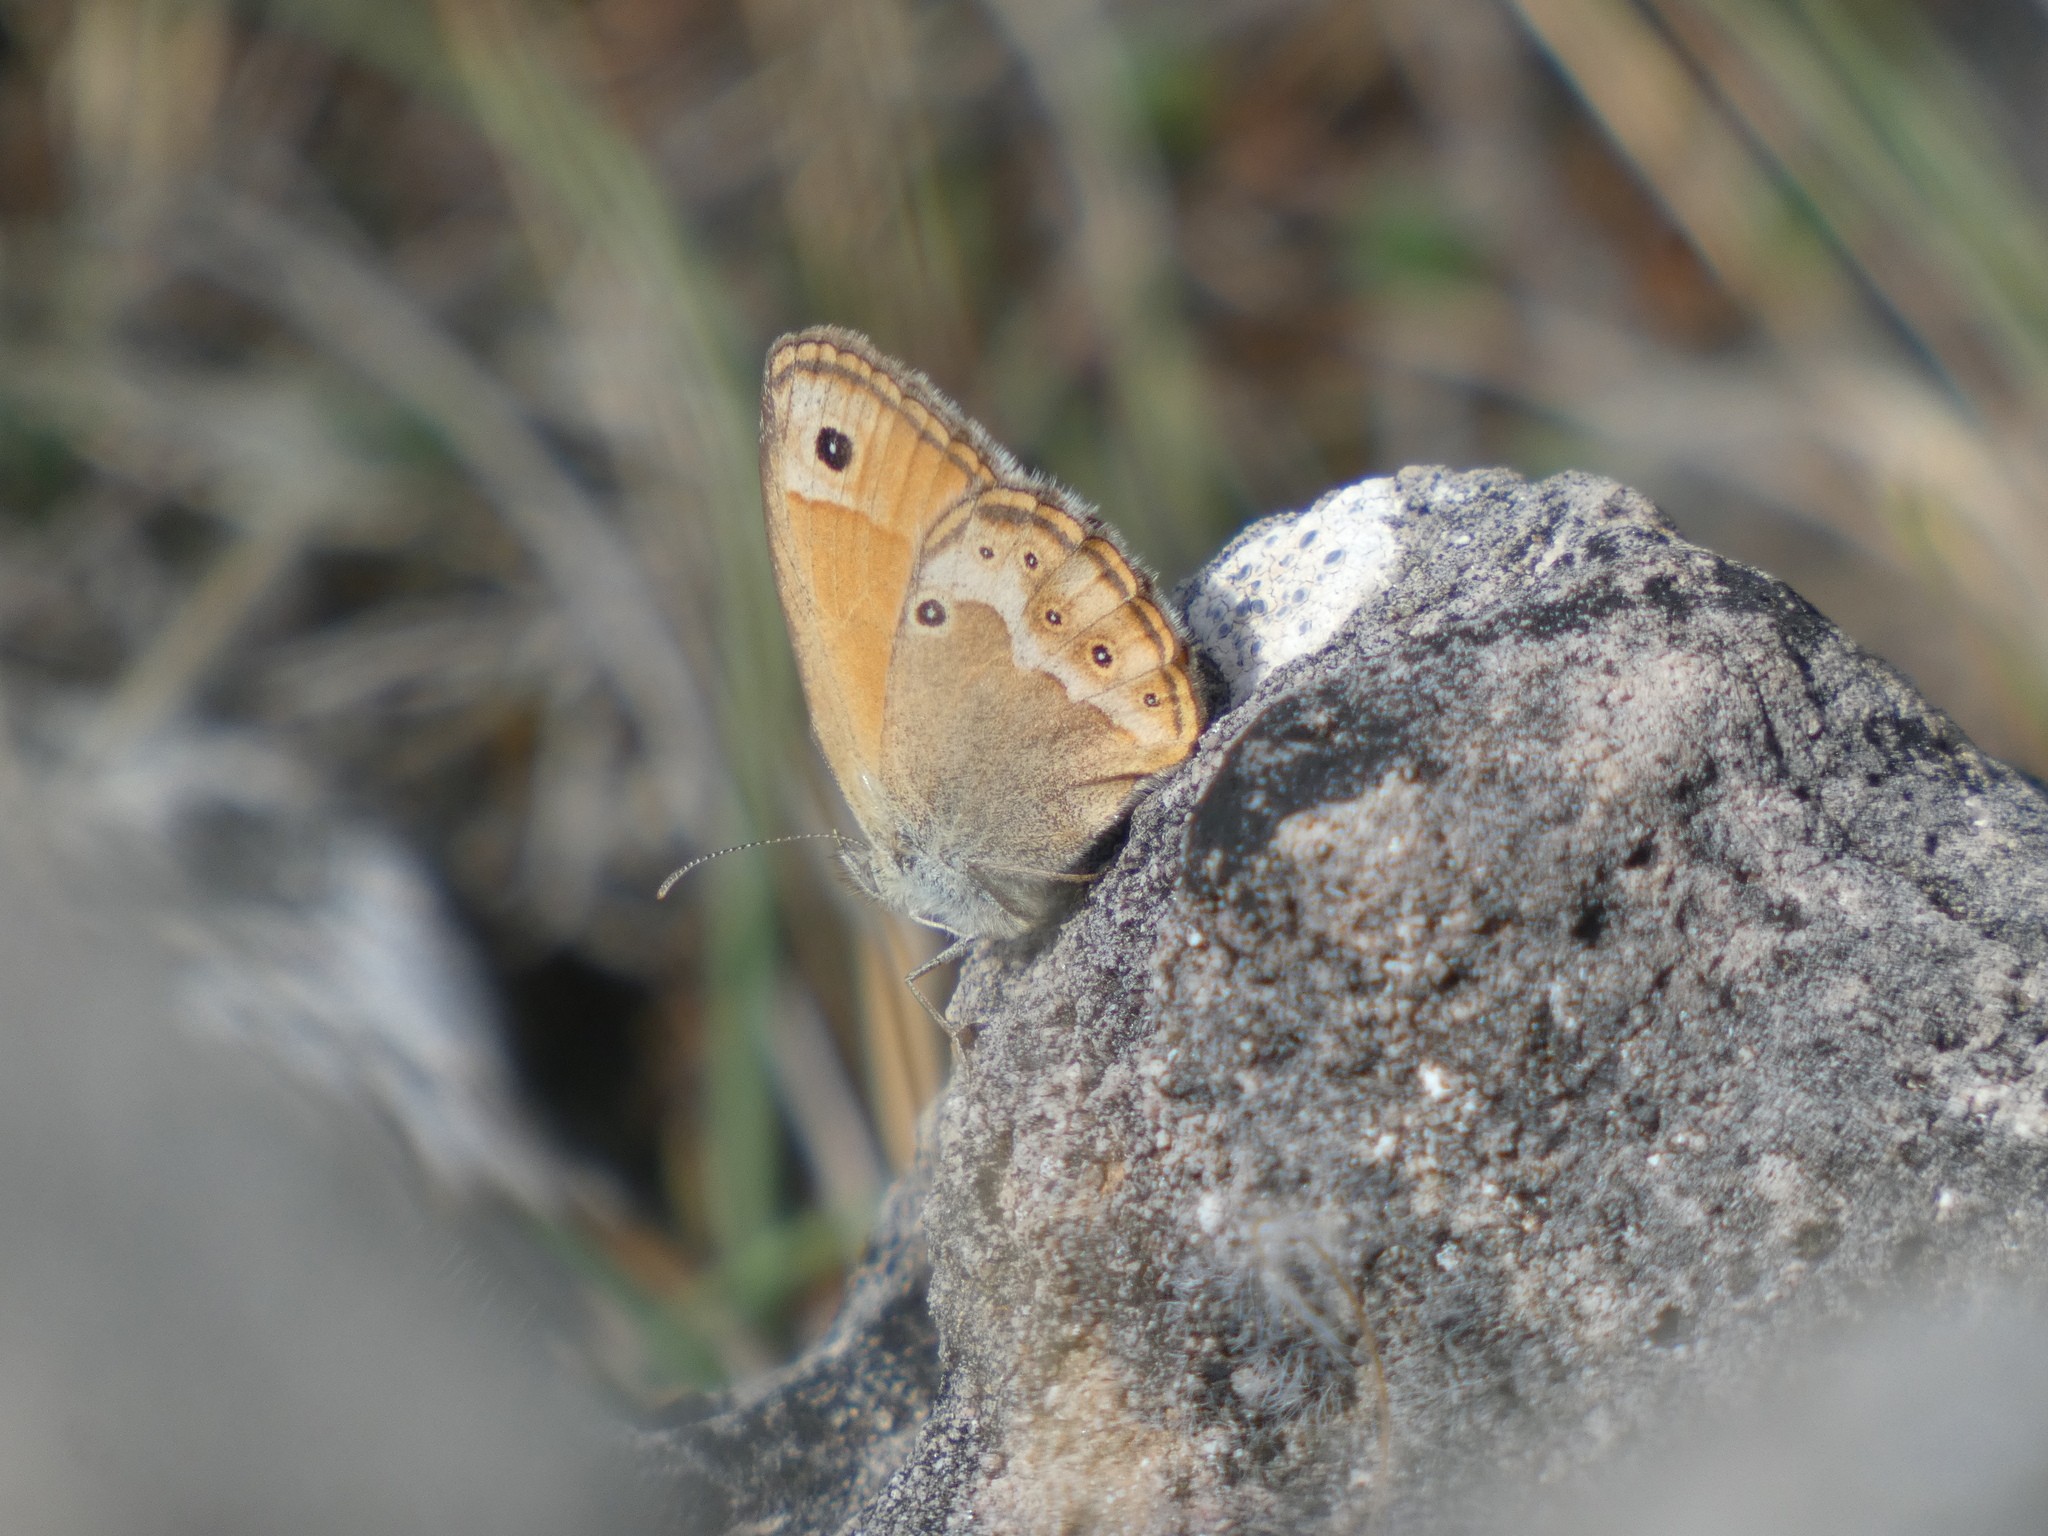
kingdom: Animalia
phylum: Arthropoda
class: Insecta
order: Lepidoptera
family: Nymphalidae
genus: Coenonympha
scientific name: Coenonympha dorus
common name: Dusky heath
